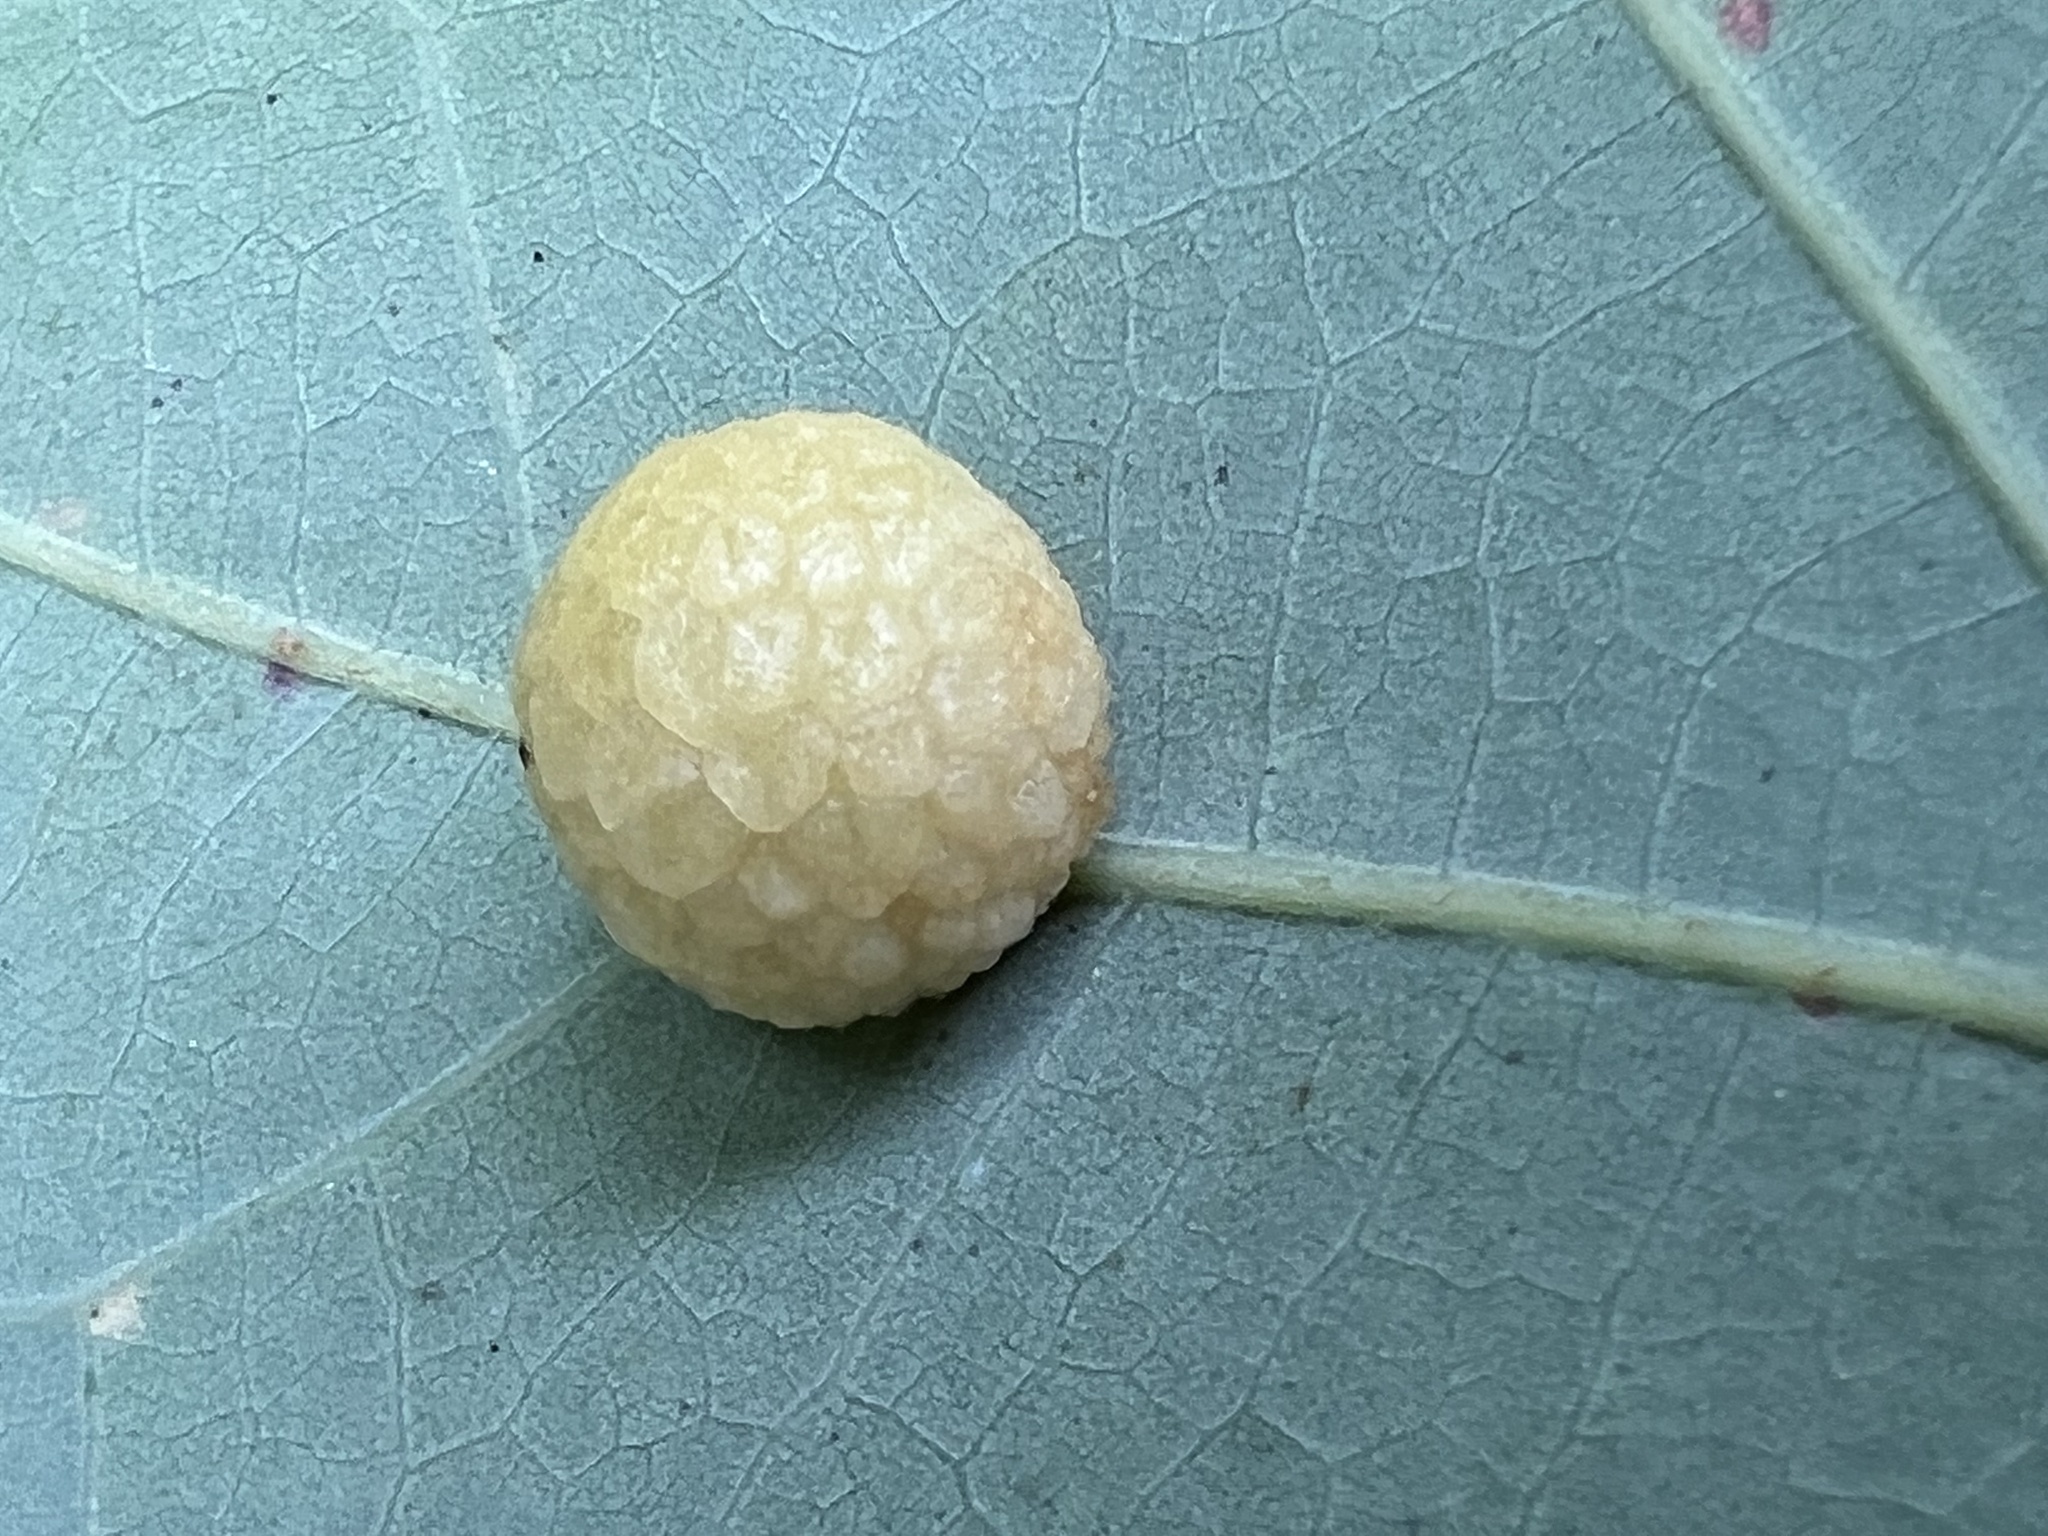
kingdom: Animalia
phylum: Arthropoda
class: Insecta
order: Hymenoptera
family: Cynipidae
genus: Acraspis
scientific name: Acraspis
